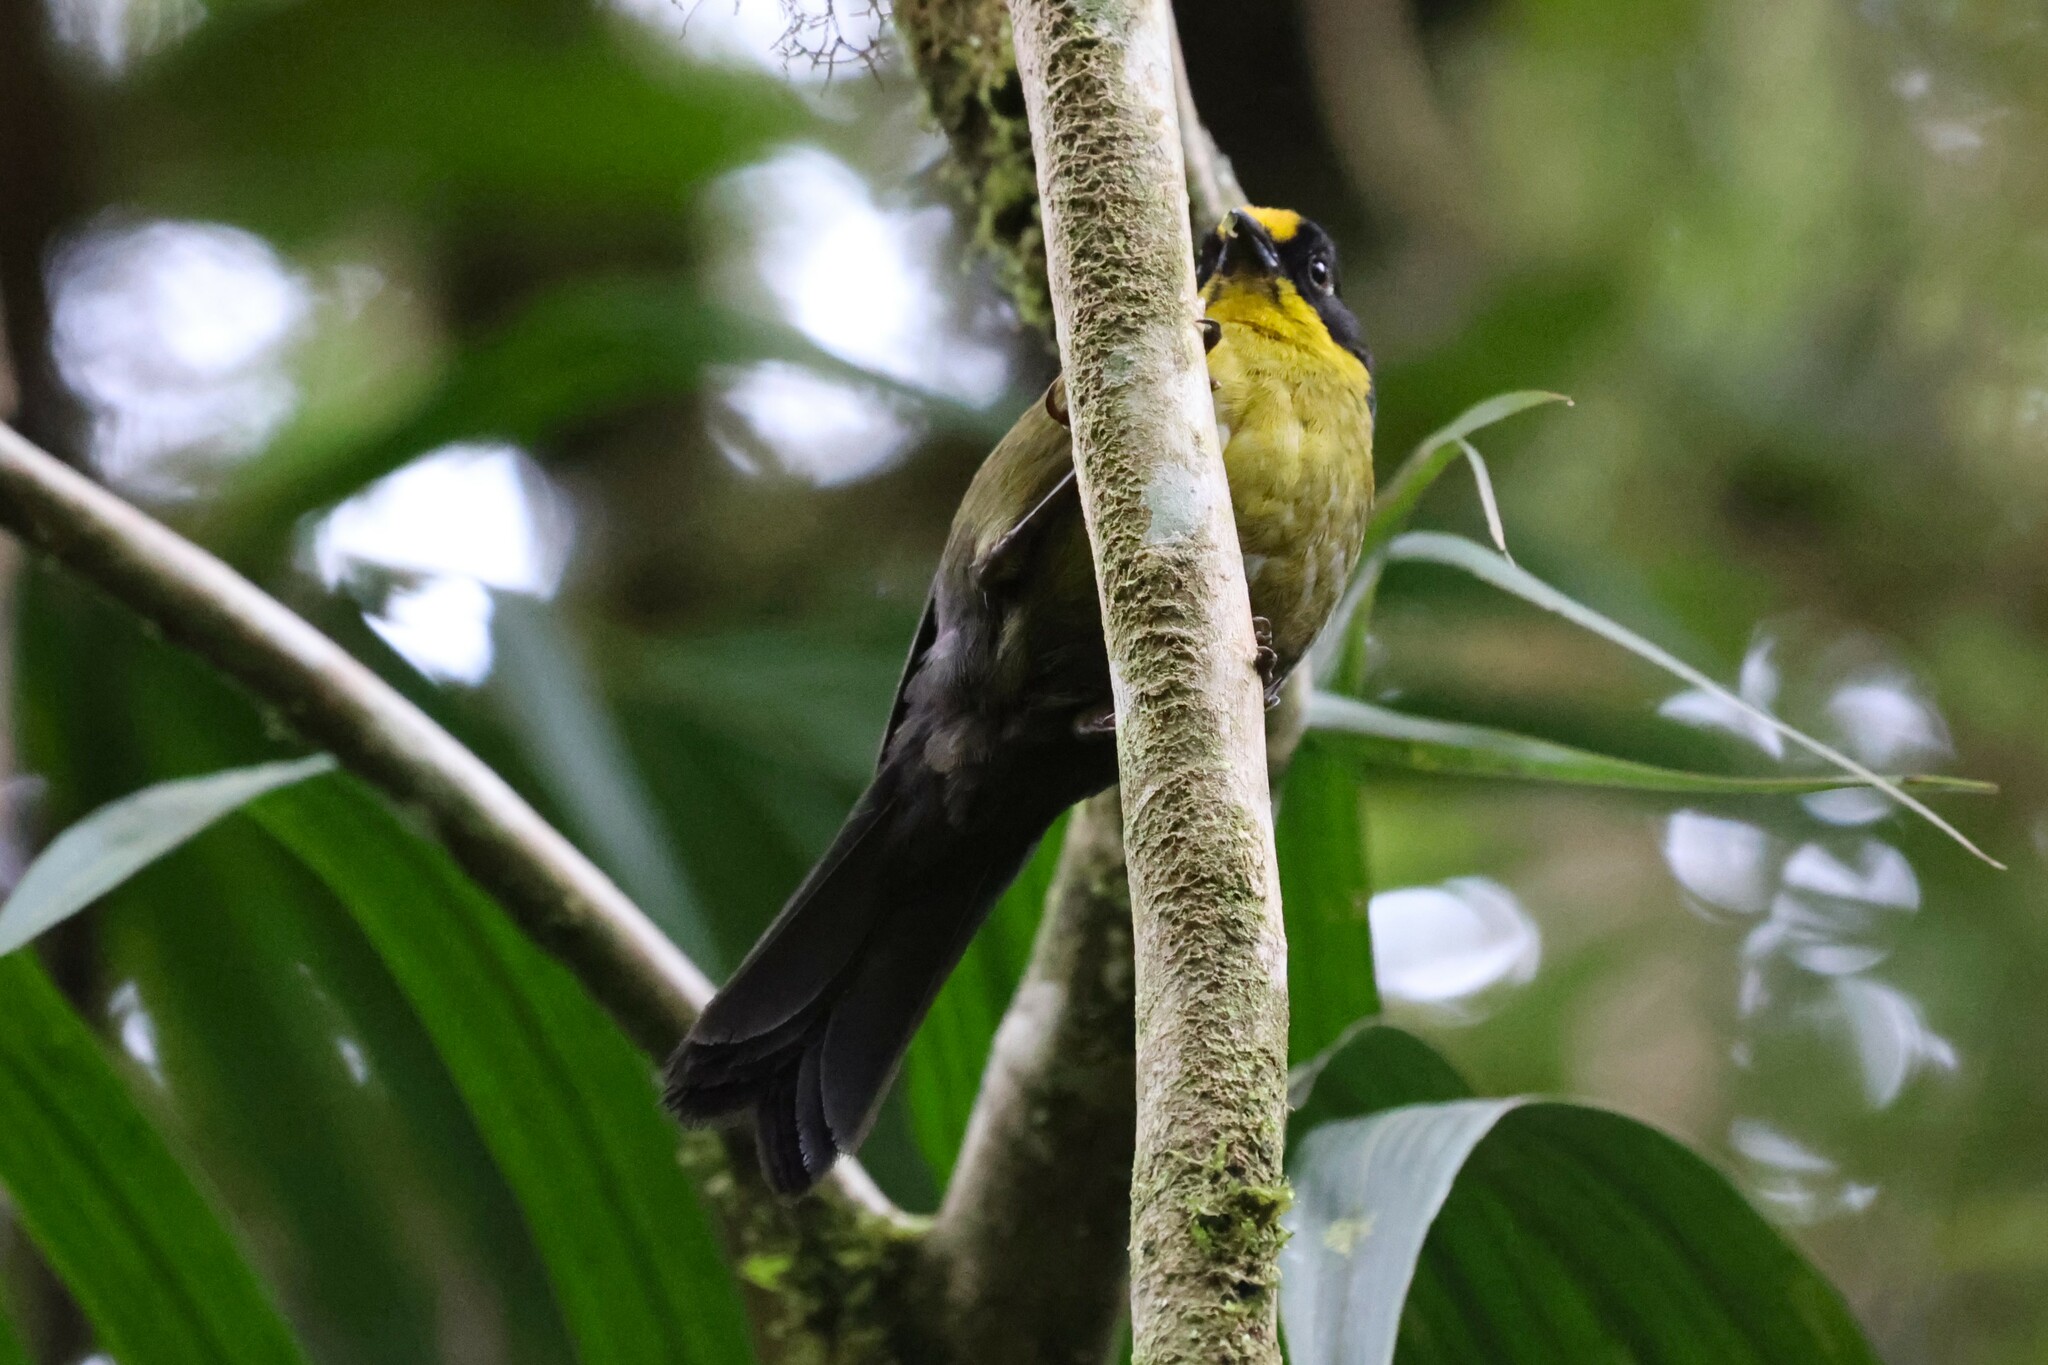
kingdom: Animalia
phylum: Chordata
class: Aves
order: Passeriformes
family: Passerellidae
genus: Atlapetes
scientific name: Atlapetes pallidinucha
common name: Pale-naped brushfinch
